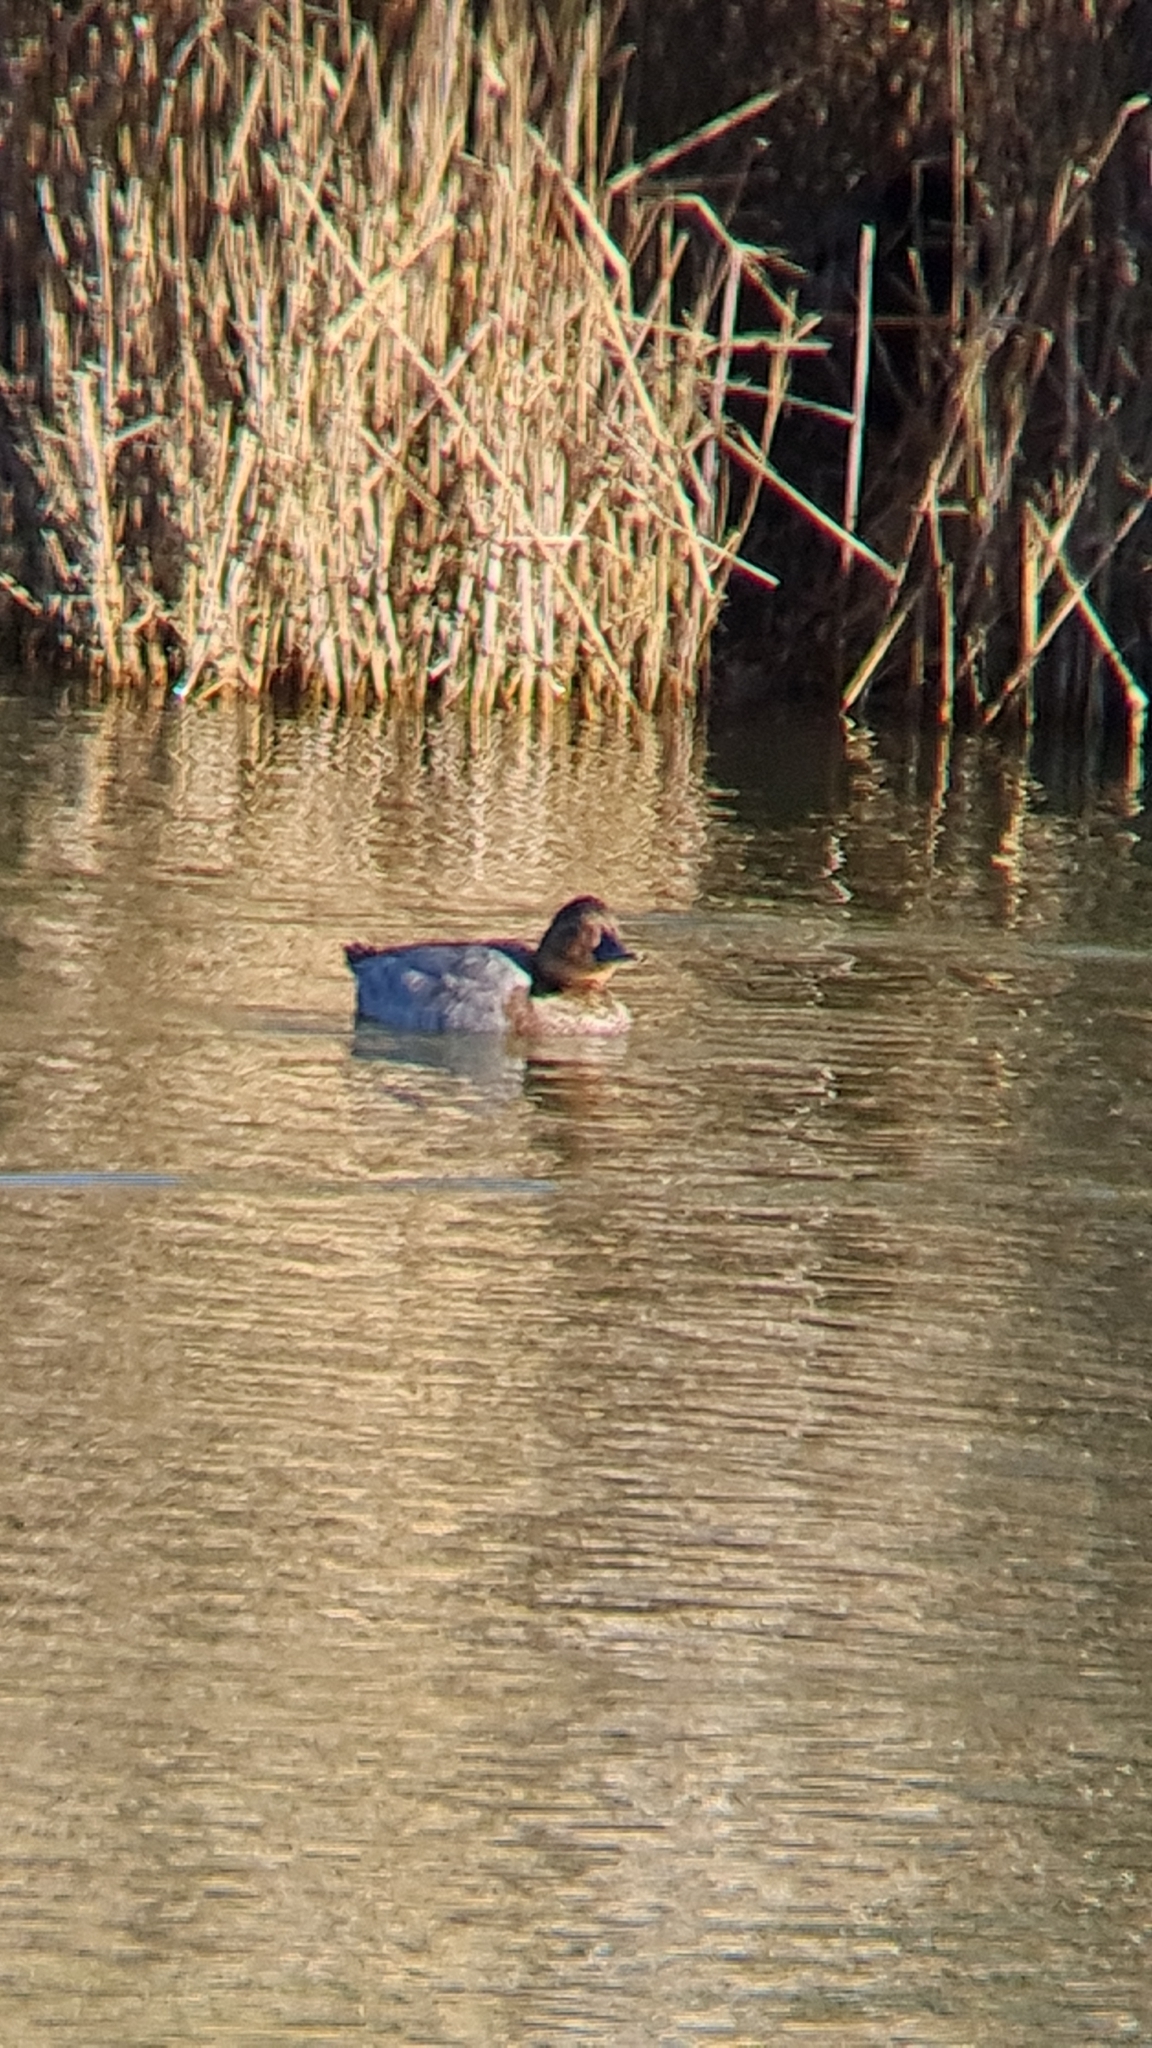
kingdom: Animalia
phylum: Chordata
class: Aves
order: Anseriformes
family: Anatidae
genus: Aythya
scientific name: Aythya ferina
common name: Common pochard
